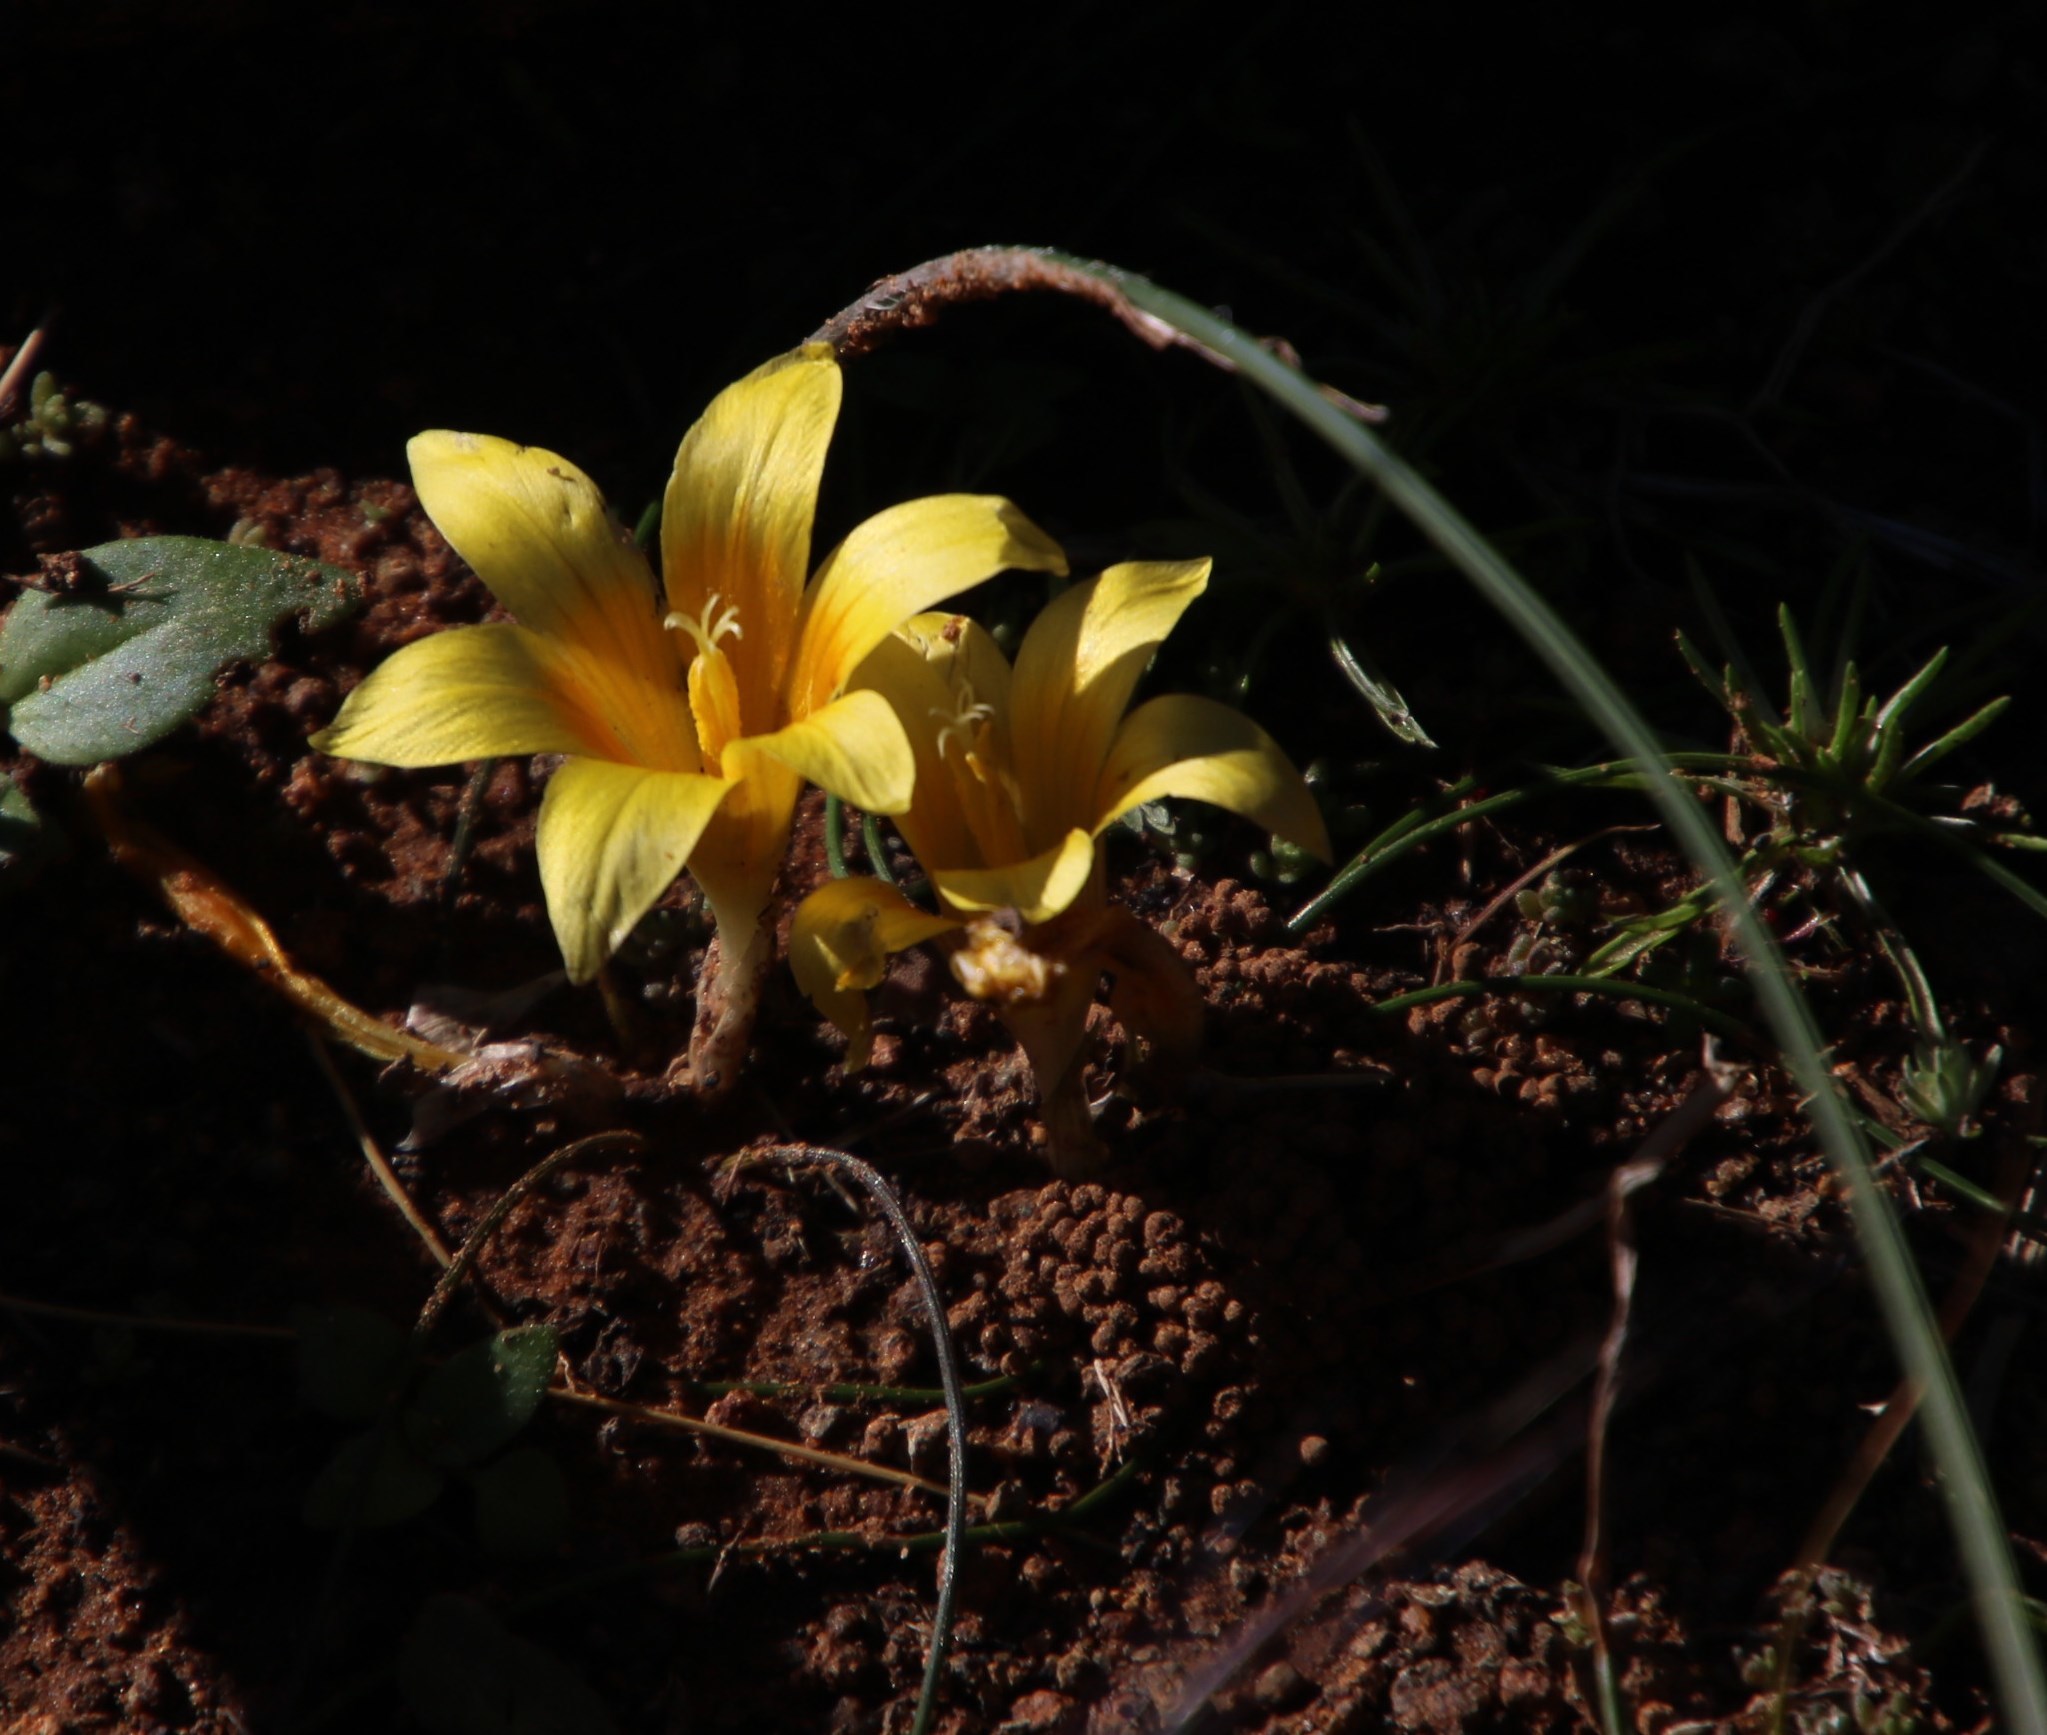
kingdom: Plantae
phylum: Tracheophyta
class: Liliopsida
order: Asparagales
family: Iridaceae
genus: Romulea
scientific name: Romulea tortuosa
